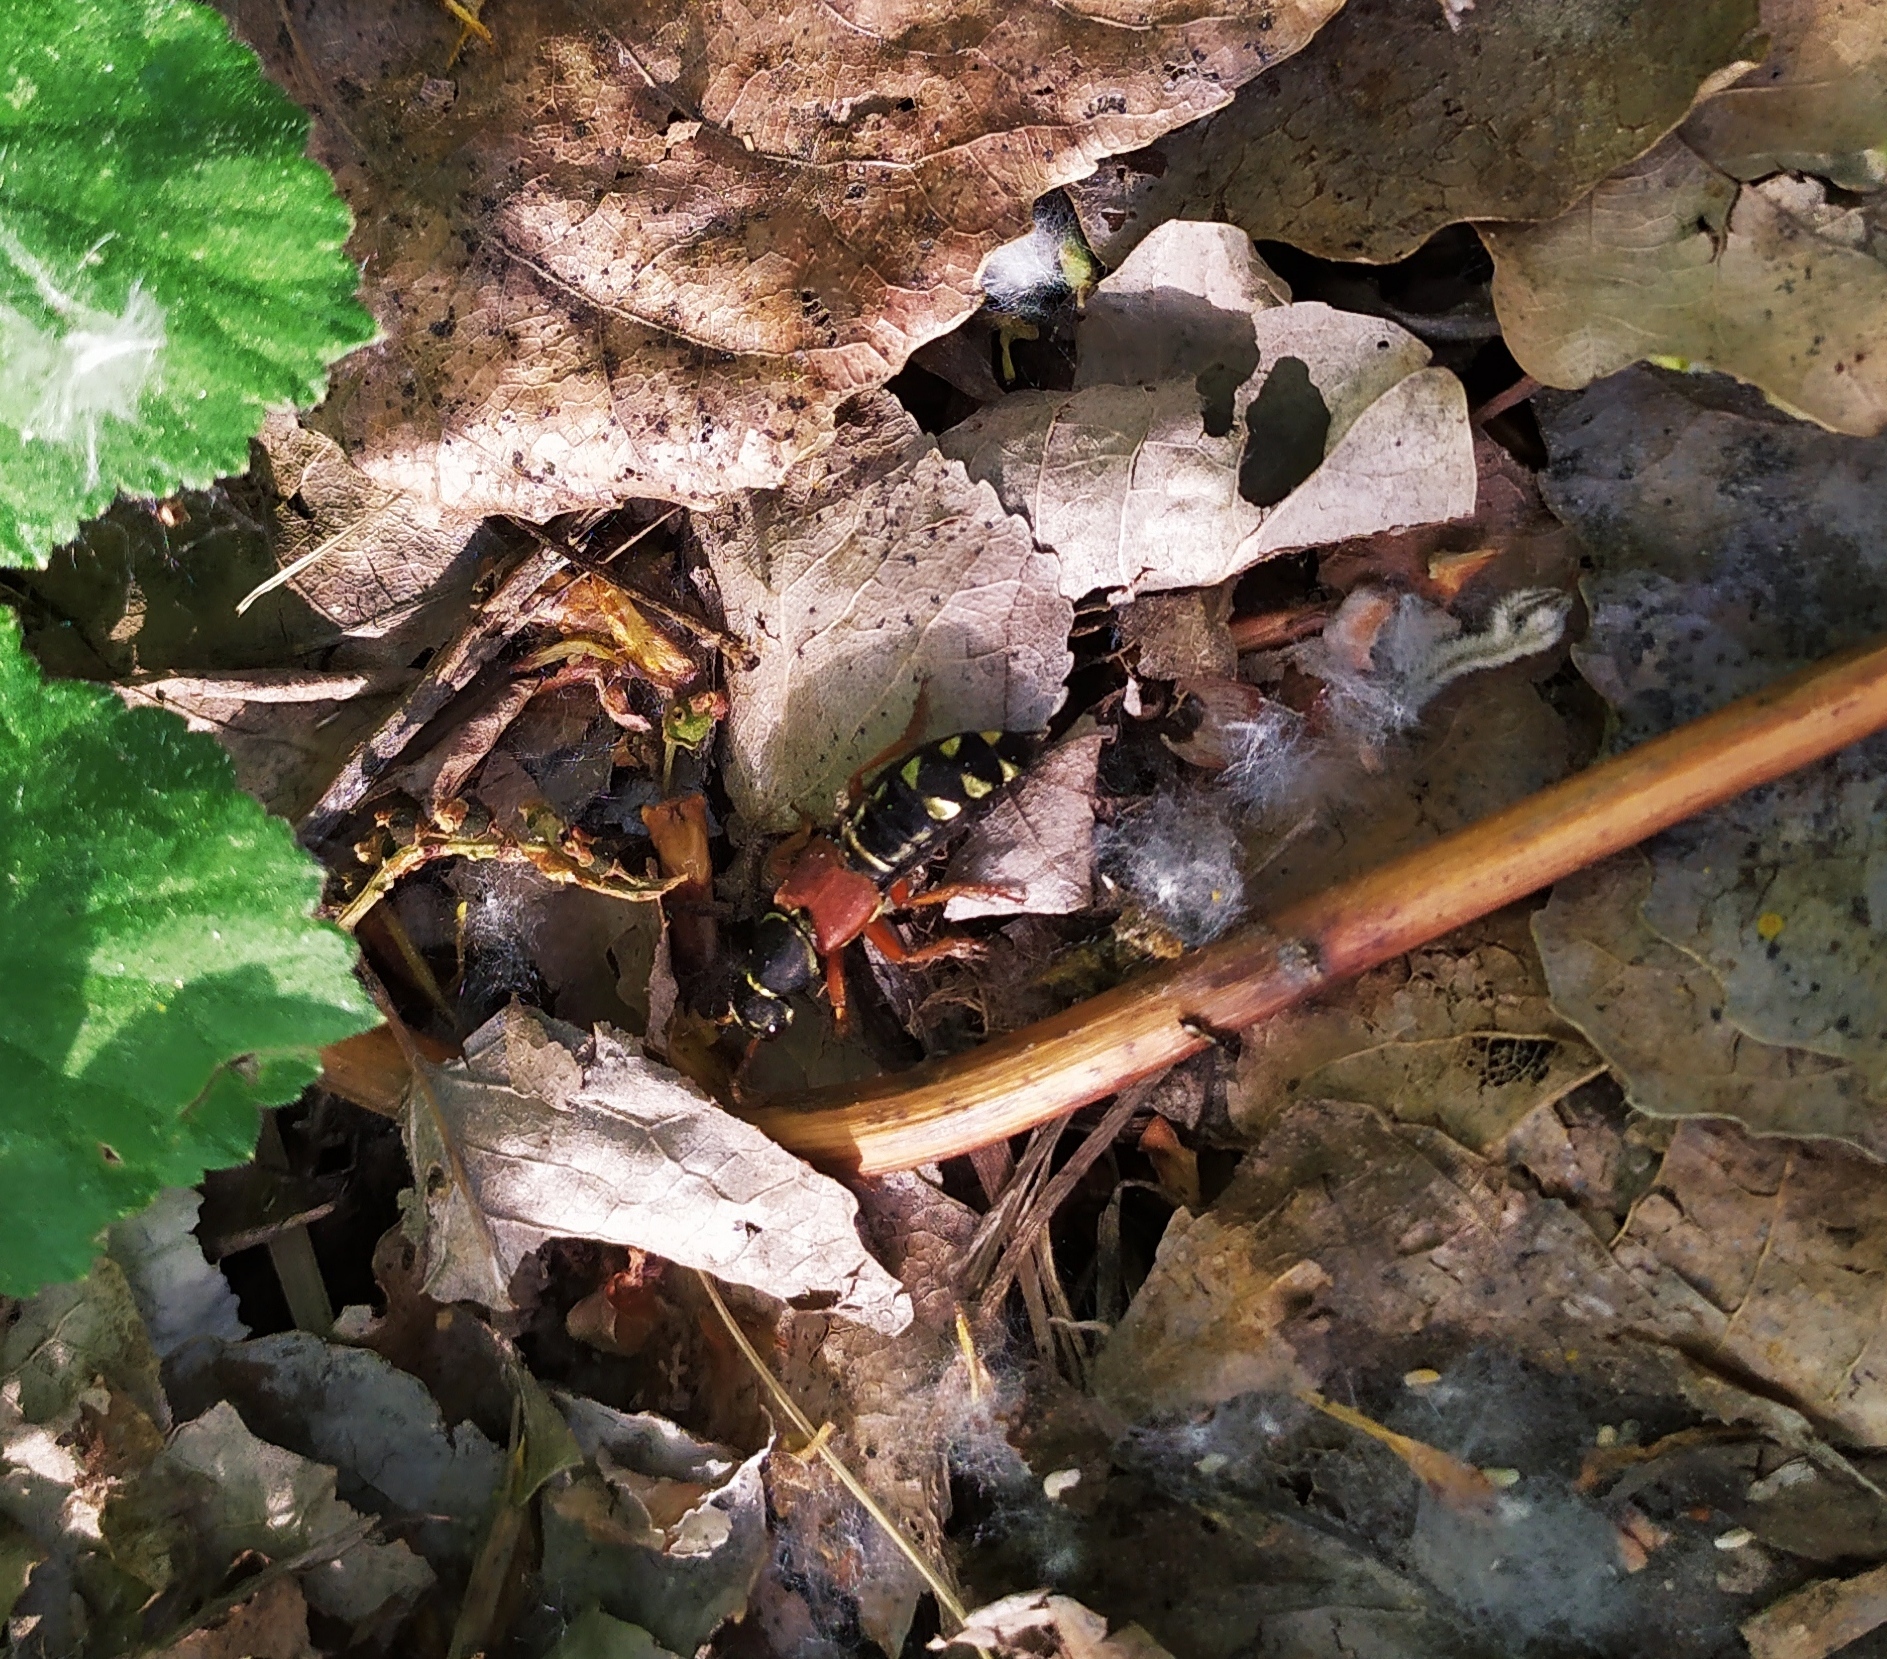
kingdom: Animalia
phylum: Arthropoda
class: Insecta
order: Coleoptera
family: Staphylinidae
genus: Staphylinus
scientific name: Staphylinus caesareus
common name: Staph beetle
